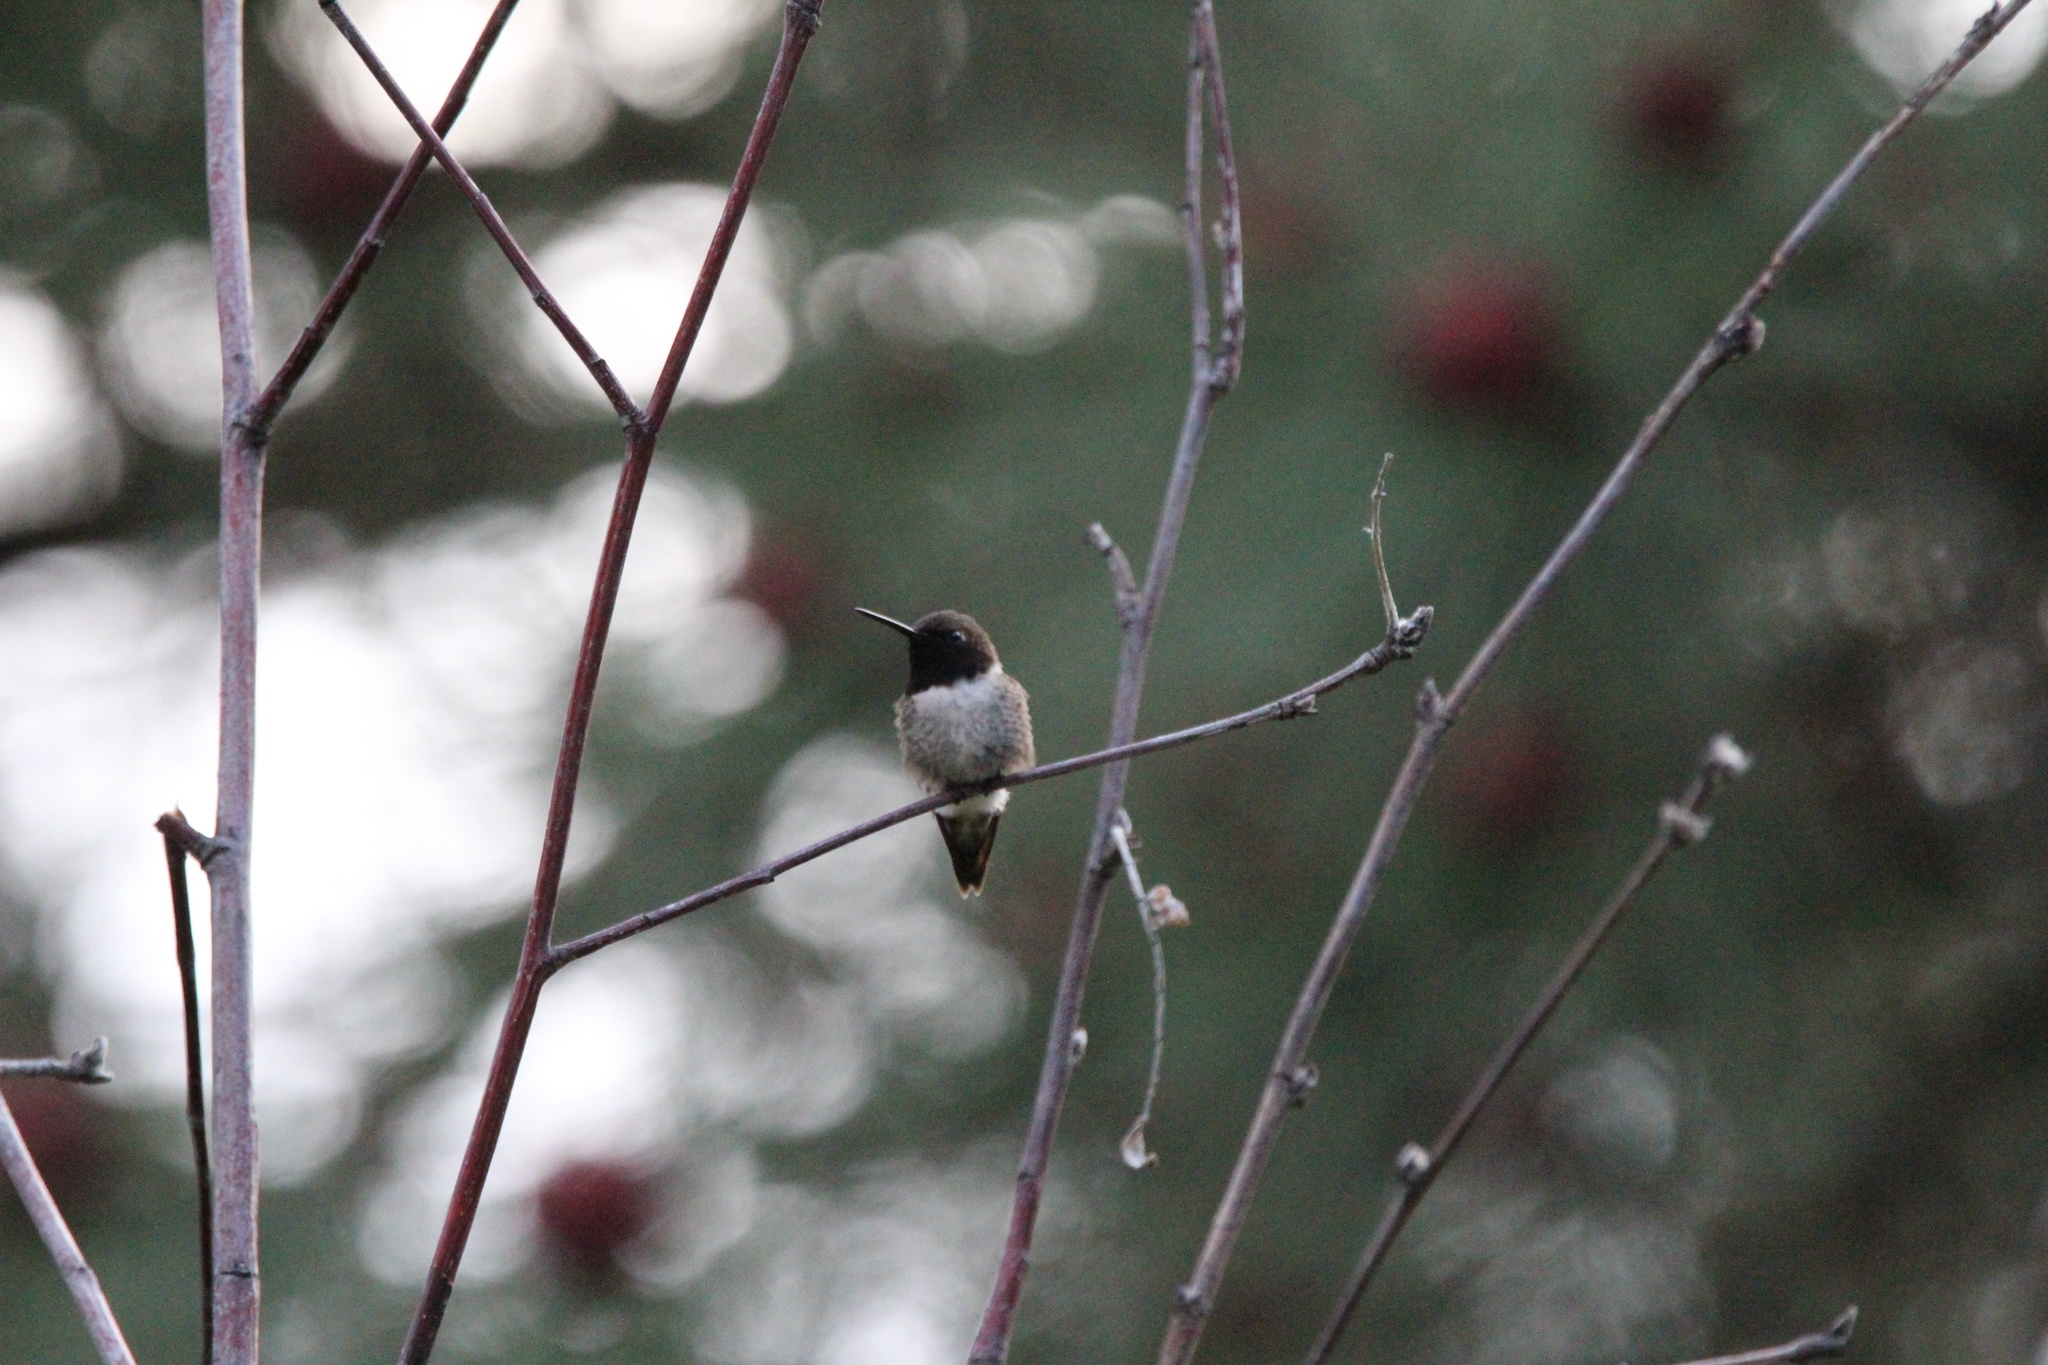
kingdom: Animalia
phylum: Chordata
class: Aves
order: Apodiformes
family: Trochilidae
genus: Archilochus
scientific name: Archilochus alexandri
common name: Black-chinned hummingbird
